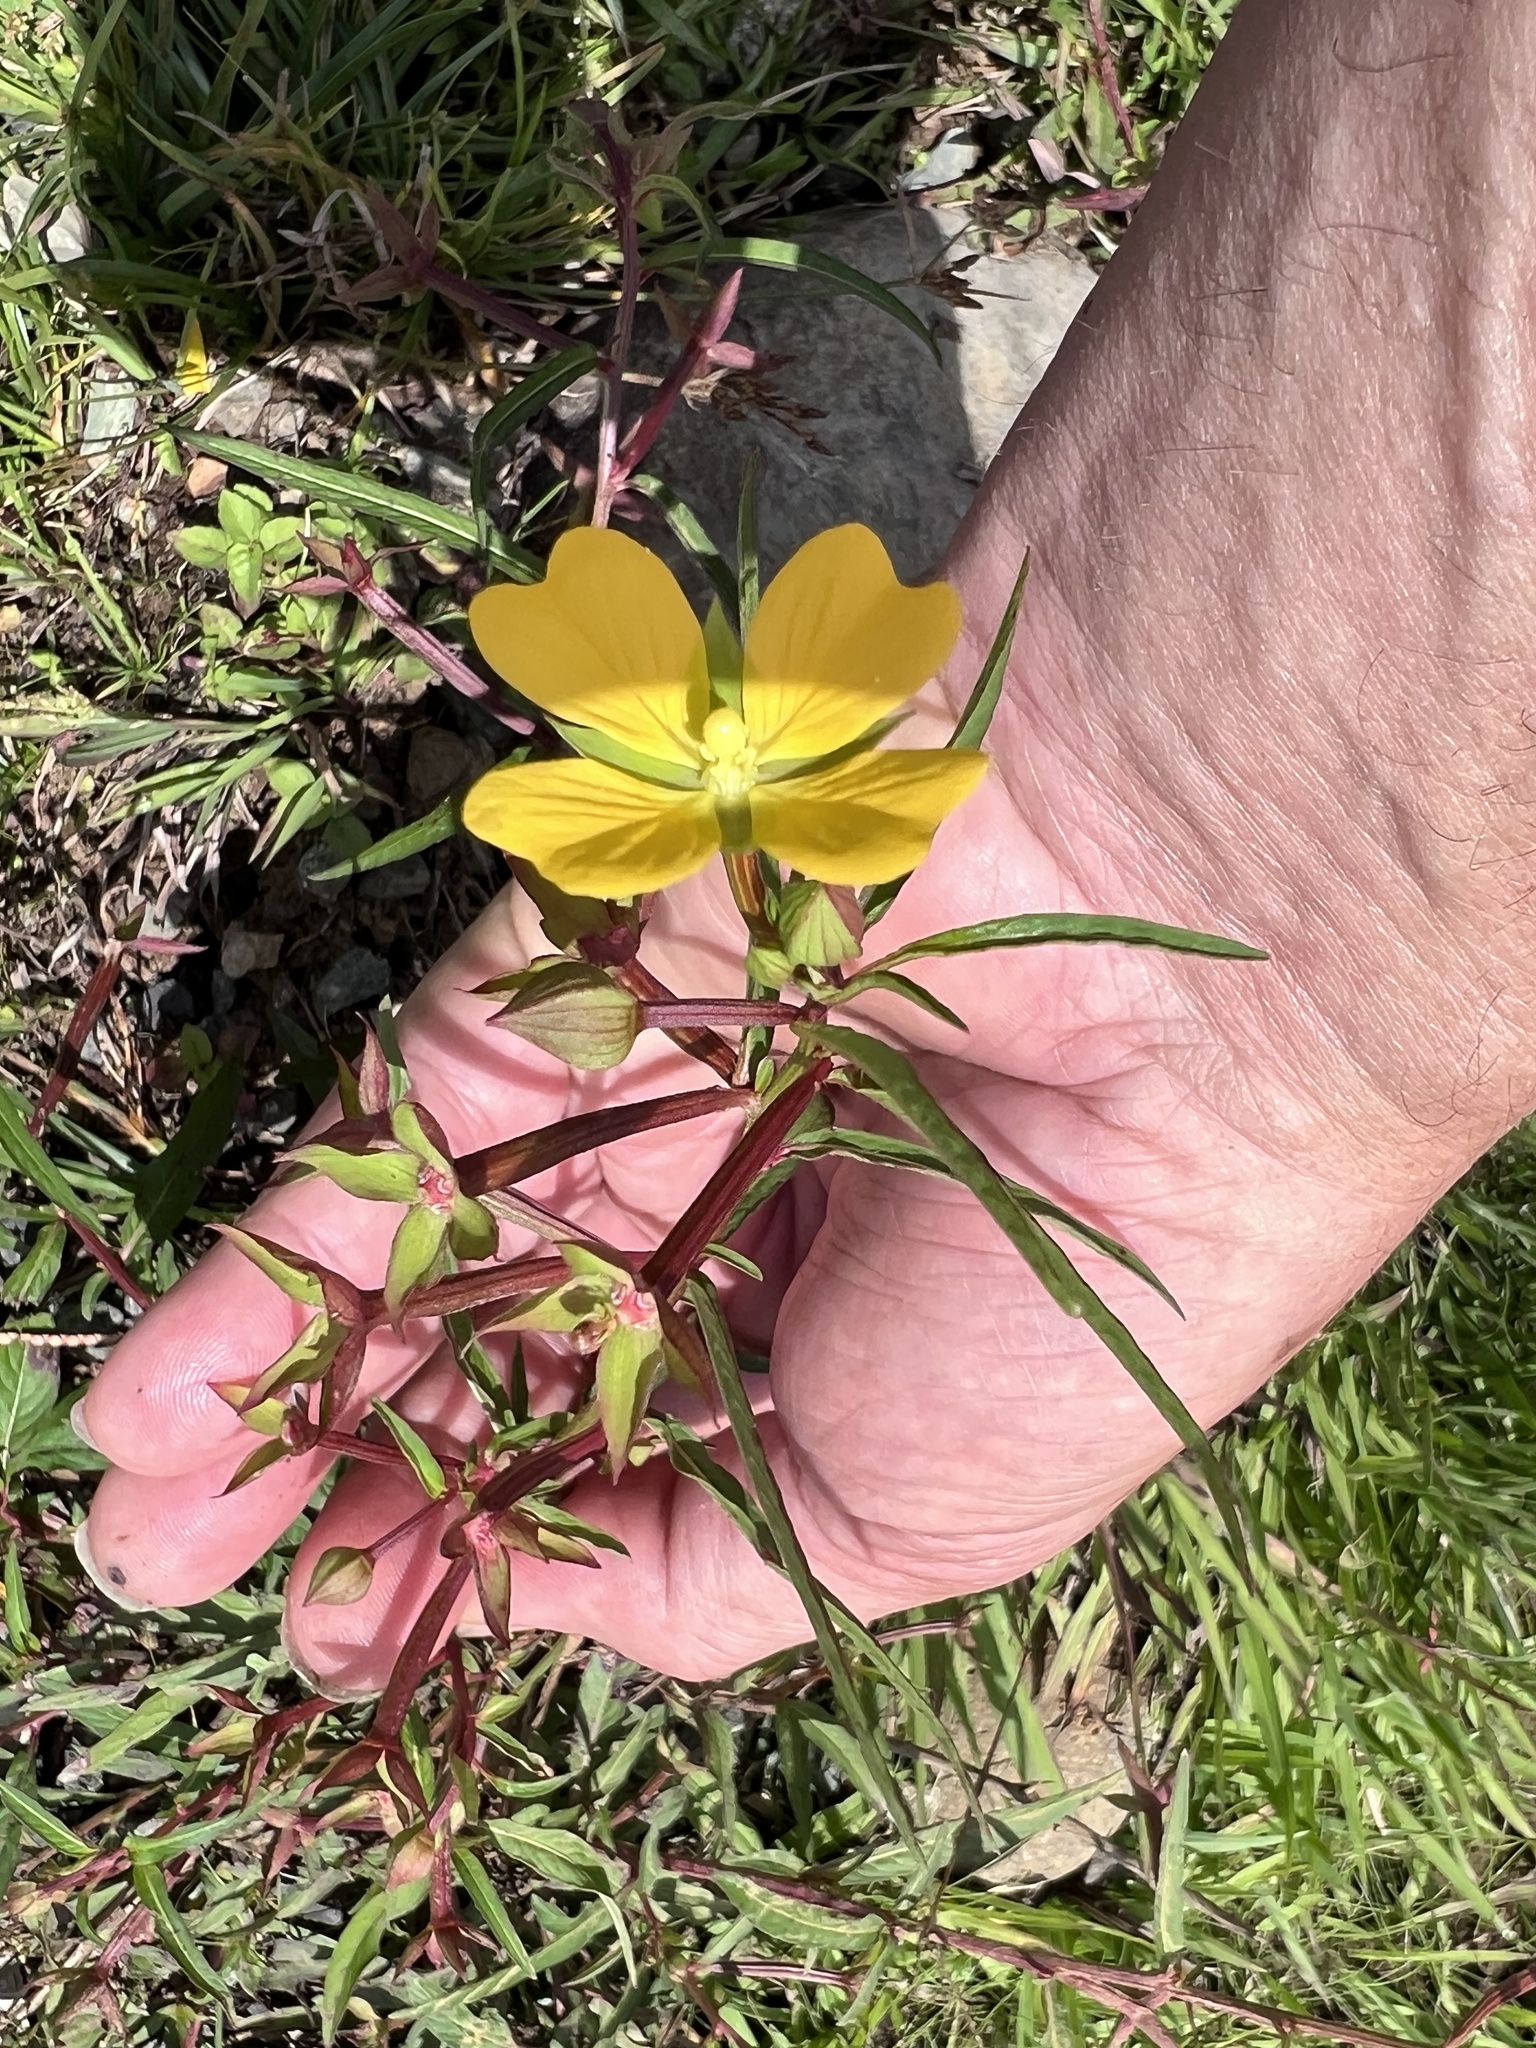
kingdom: Plantae
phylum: Tracheophyta
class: Magnoliopsida
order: Myrtales
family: Onagraceae
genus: Ludwigia
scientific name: Ludwigia octovalvis
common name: Water-primrose
